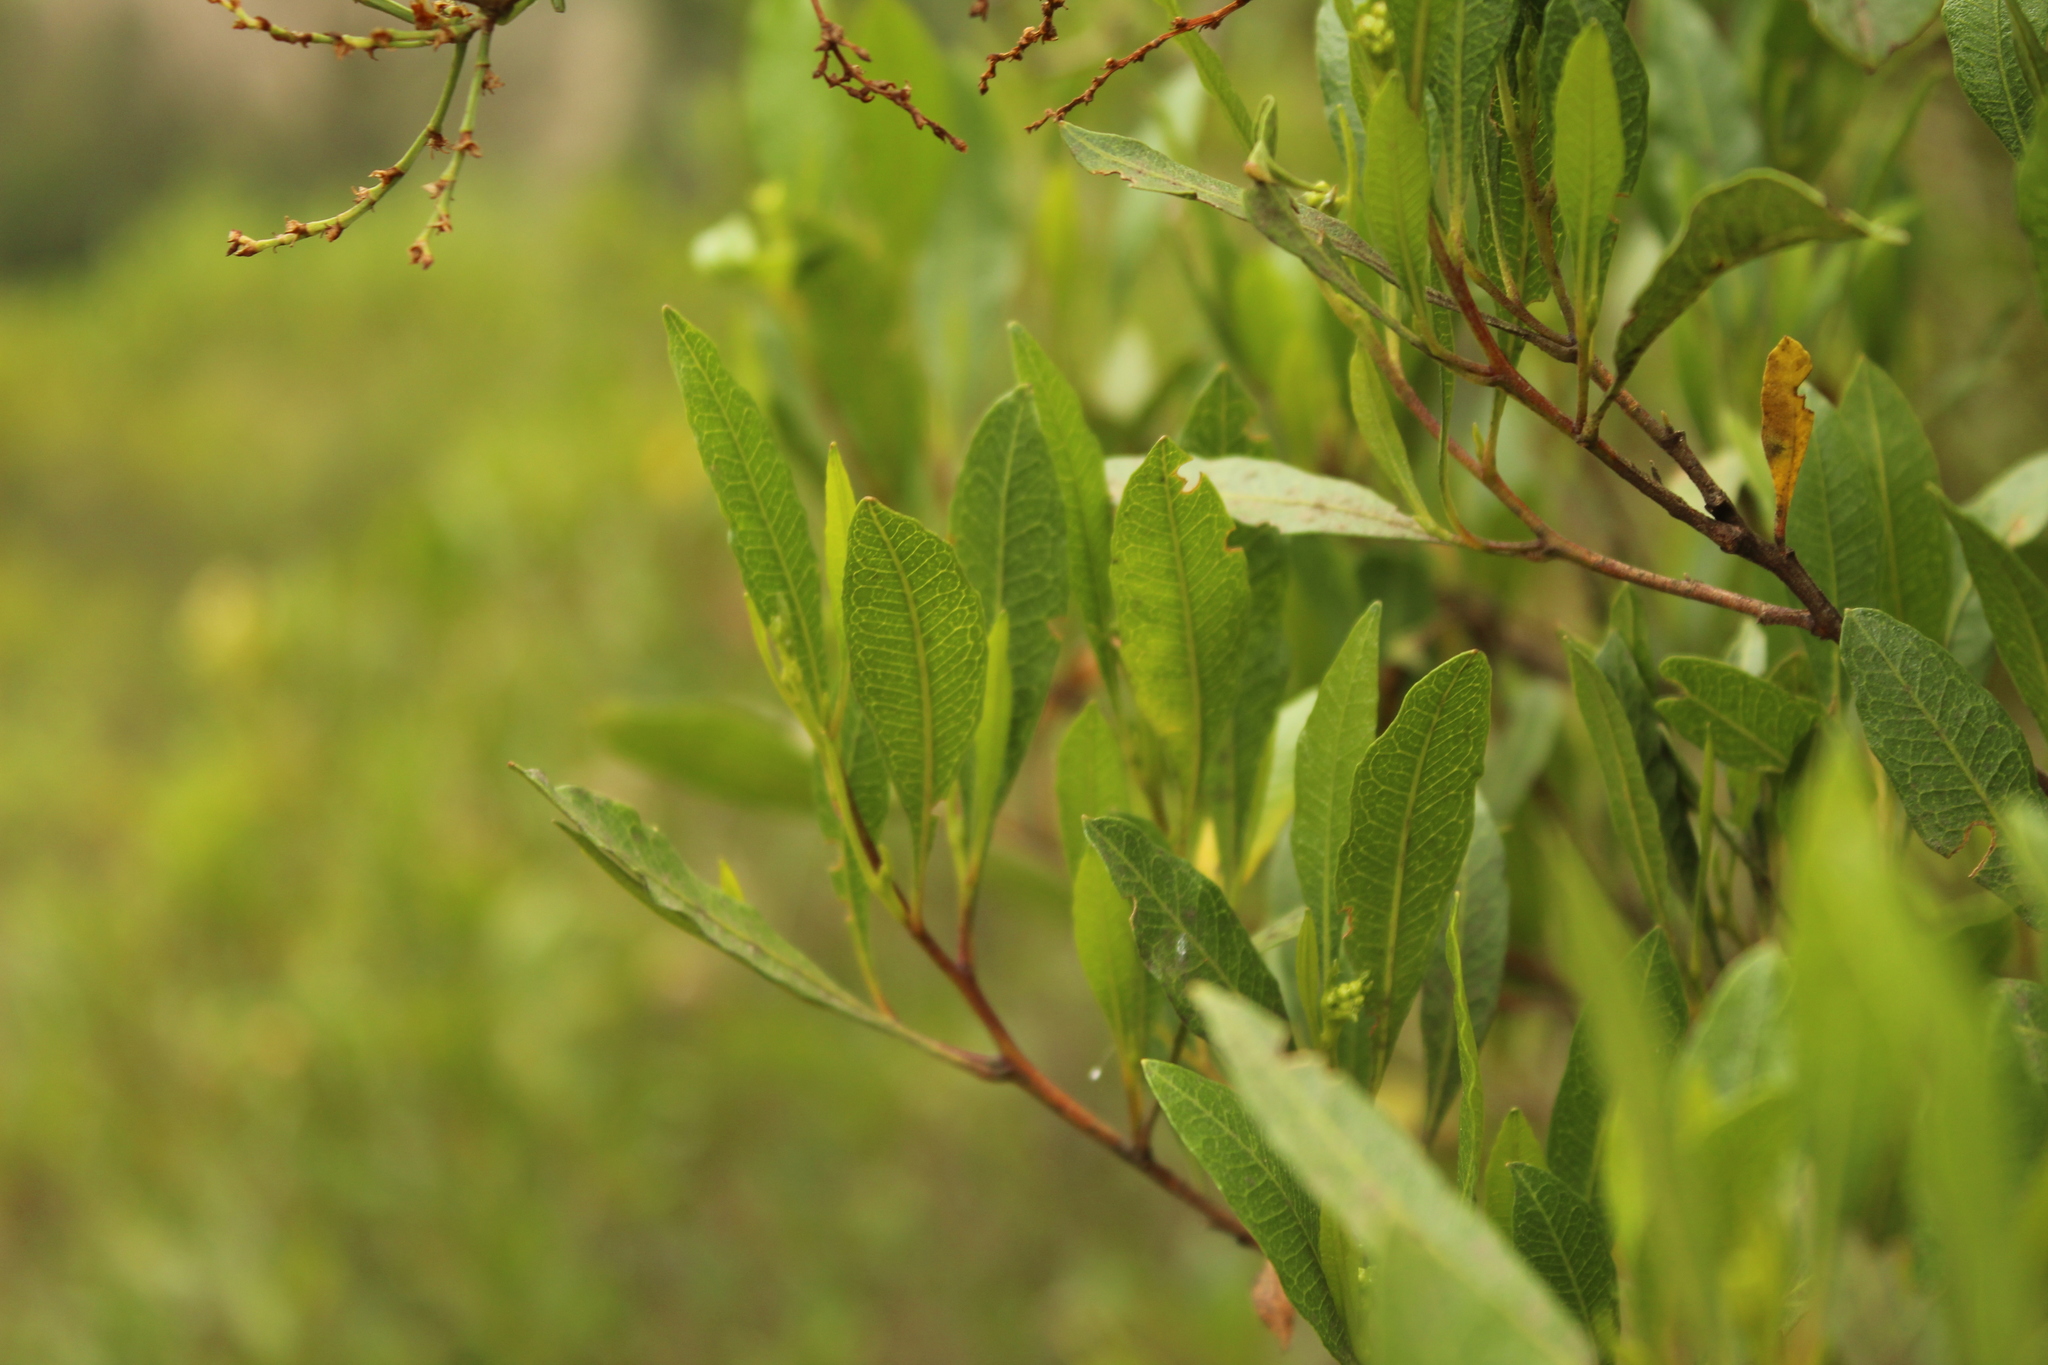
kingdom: Plantae
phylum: Tracheophyta
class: Magnoliopsida
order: Sapindales
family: Sapindaceae
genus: Dodonaea
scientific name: Dodonaea viscosa
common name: Hopbush
